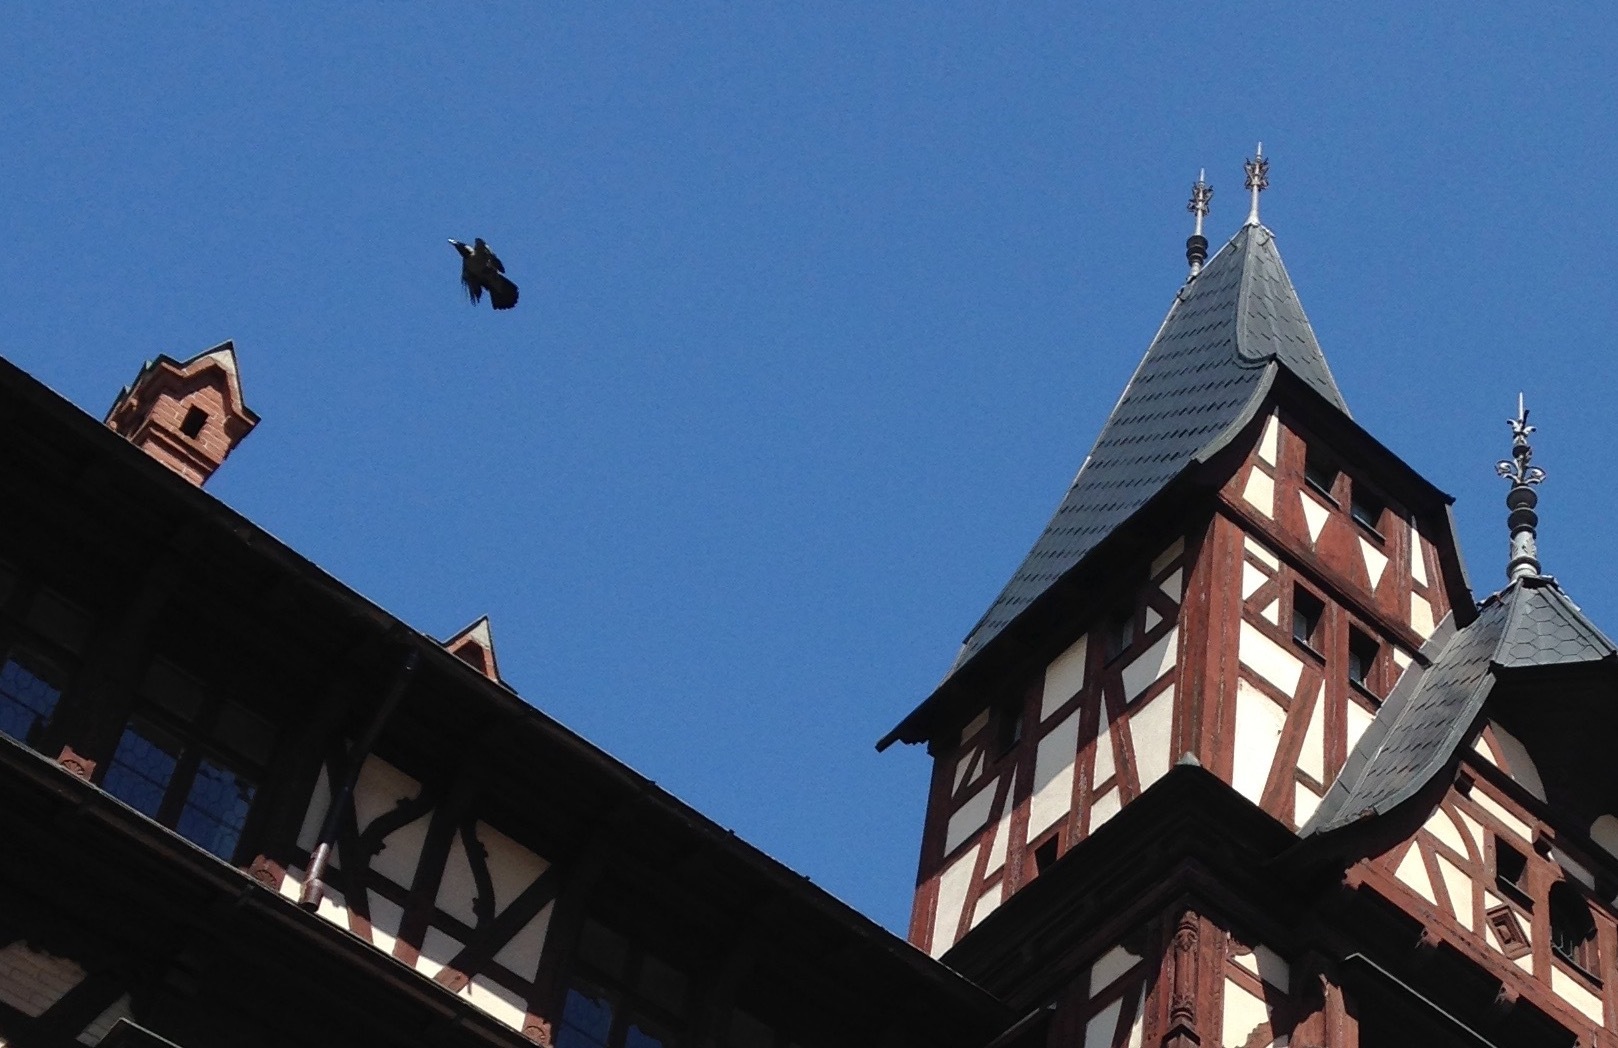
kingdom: Animalia
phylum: Chordata
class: Aves
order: Passeriformes
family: Corvidae
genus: Corvus
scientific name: Corvus cornix
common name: Hooded crow
